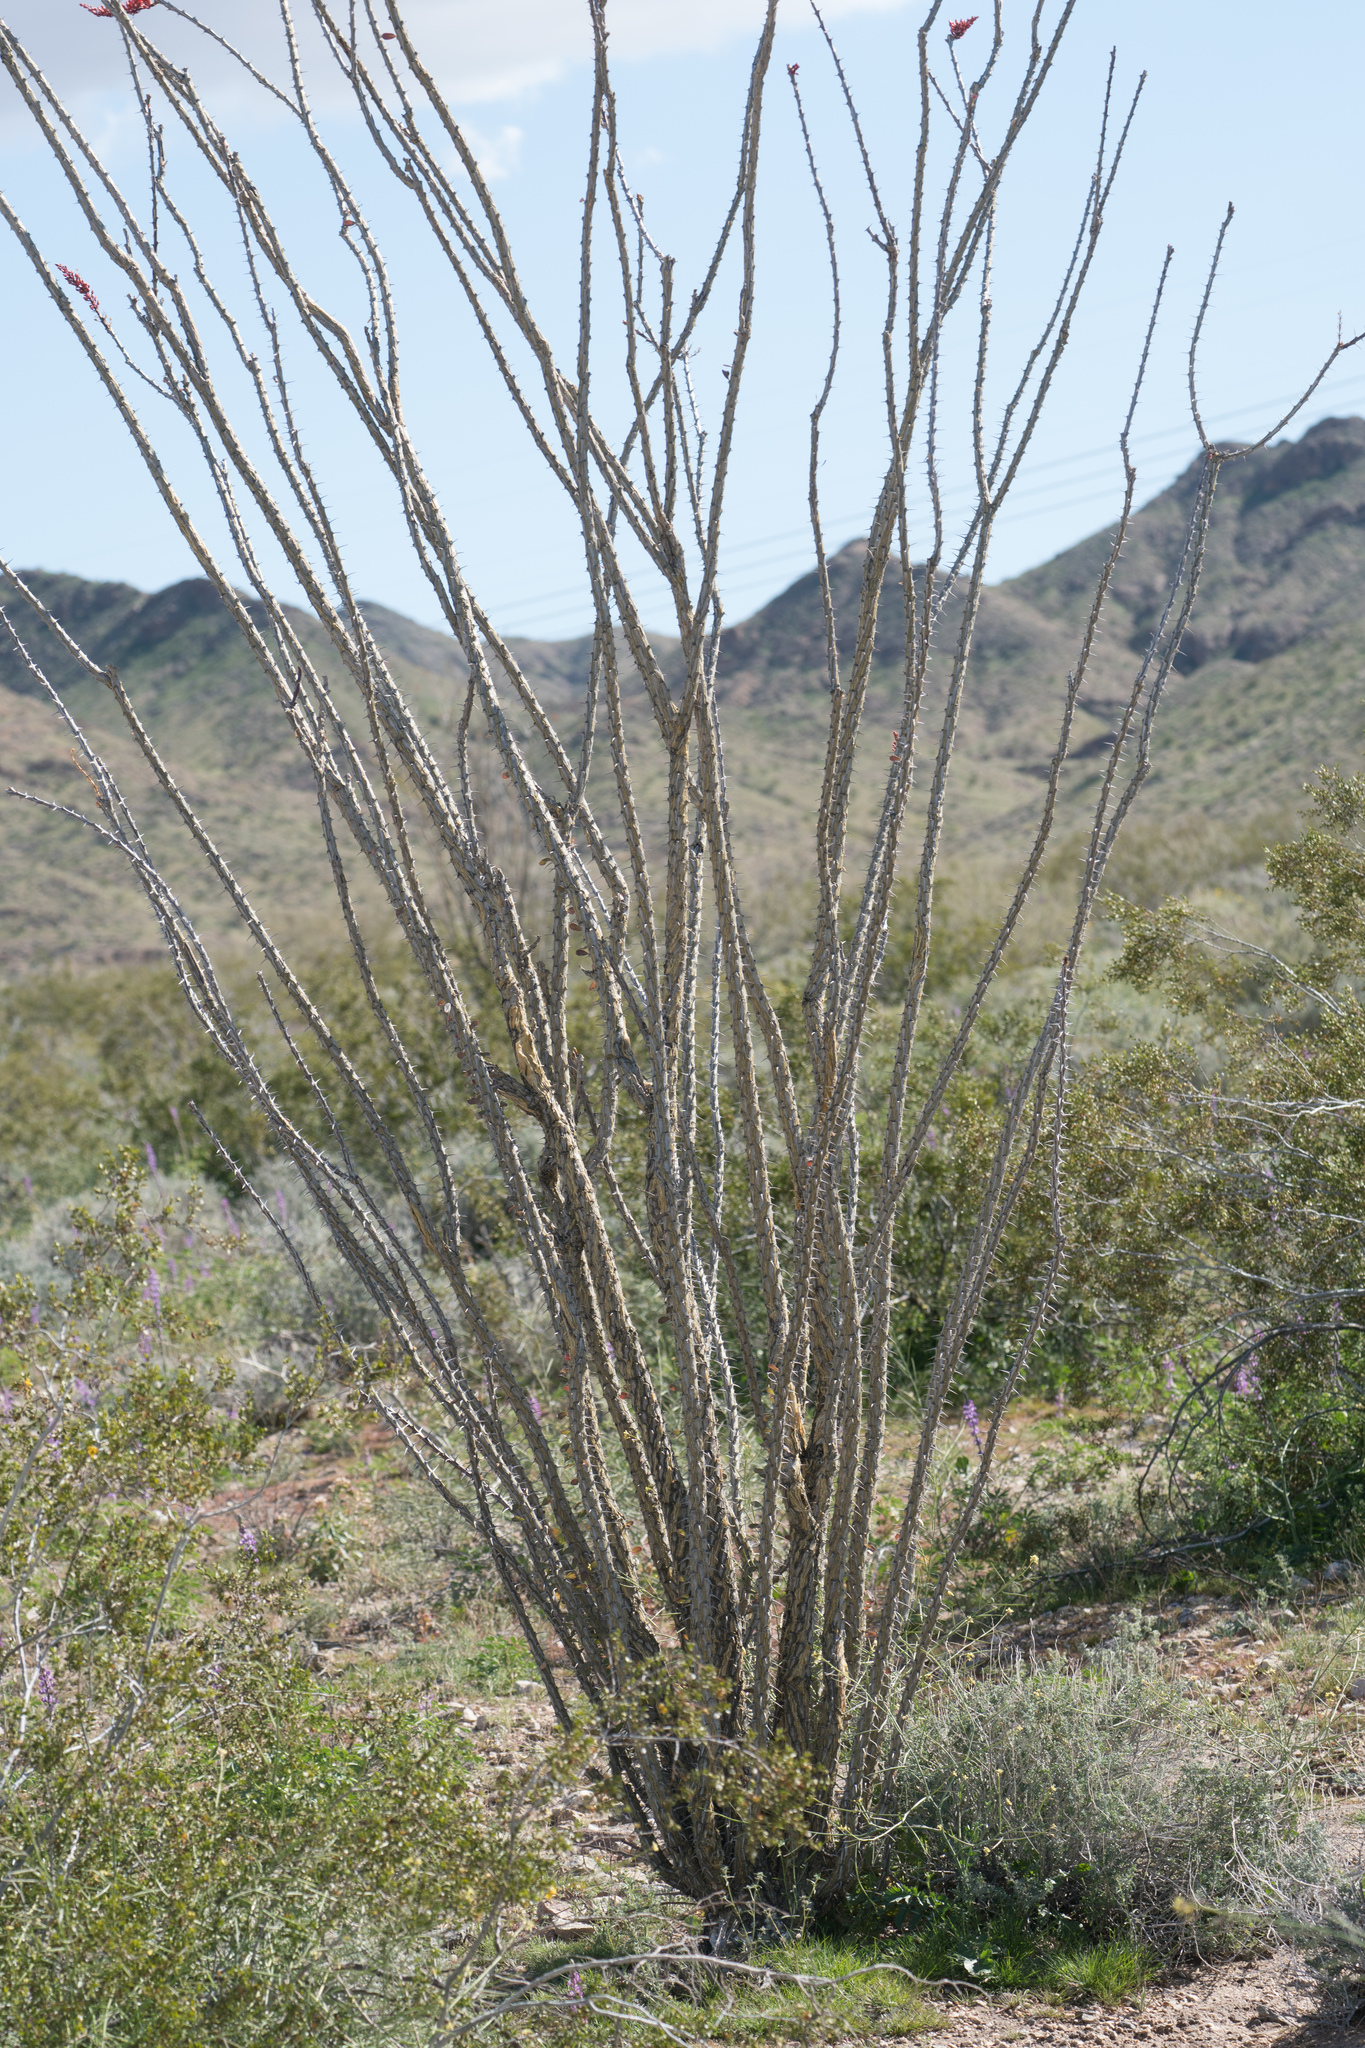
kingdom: Plantae
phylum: Tracheophyta
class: Magnoliopsida
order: Ericales
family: Fouquieriaceae
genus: Fouquieria
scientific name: Fouquieria splendens
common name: Vine-cactus
